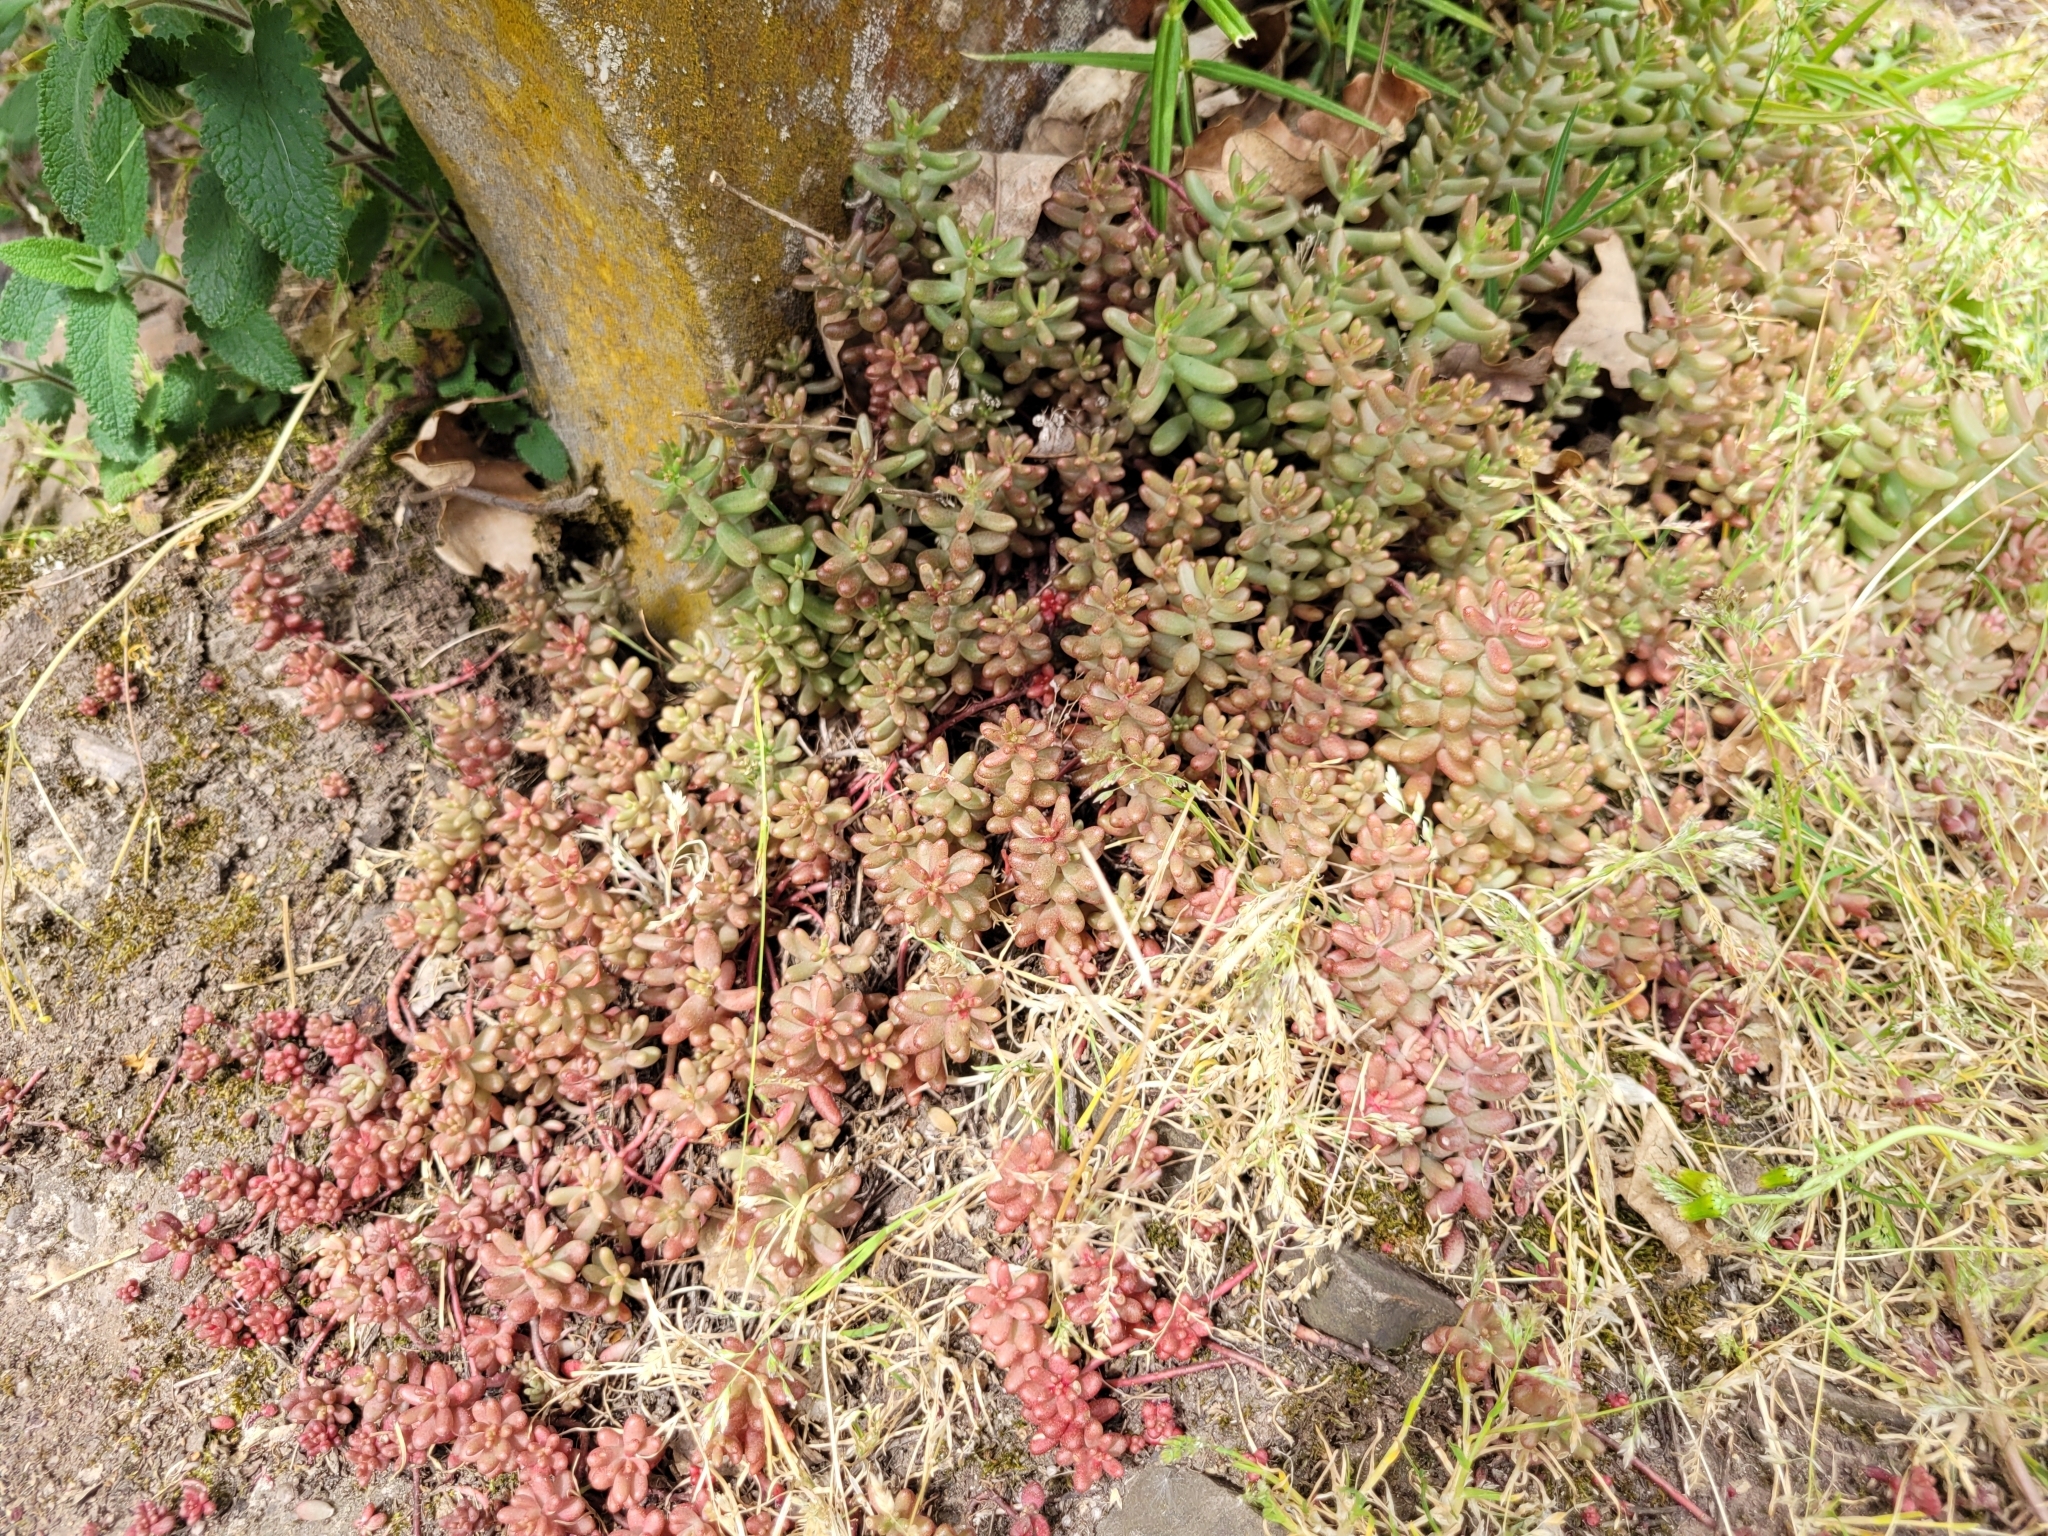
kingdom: Plantae
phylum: Tracheophyta
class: Magnoliopsida
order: Saxifragales
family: Crassulaceae
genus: Sedum
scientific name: Sedum album
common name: White stonecrop
